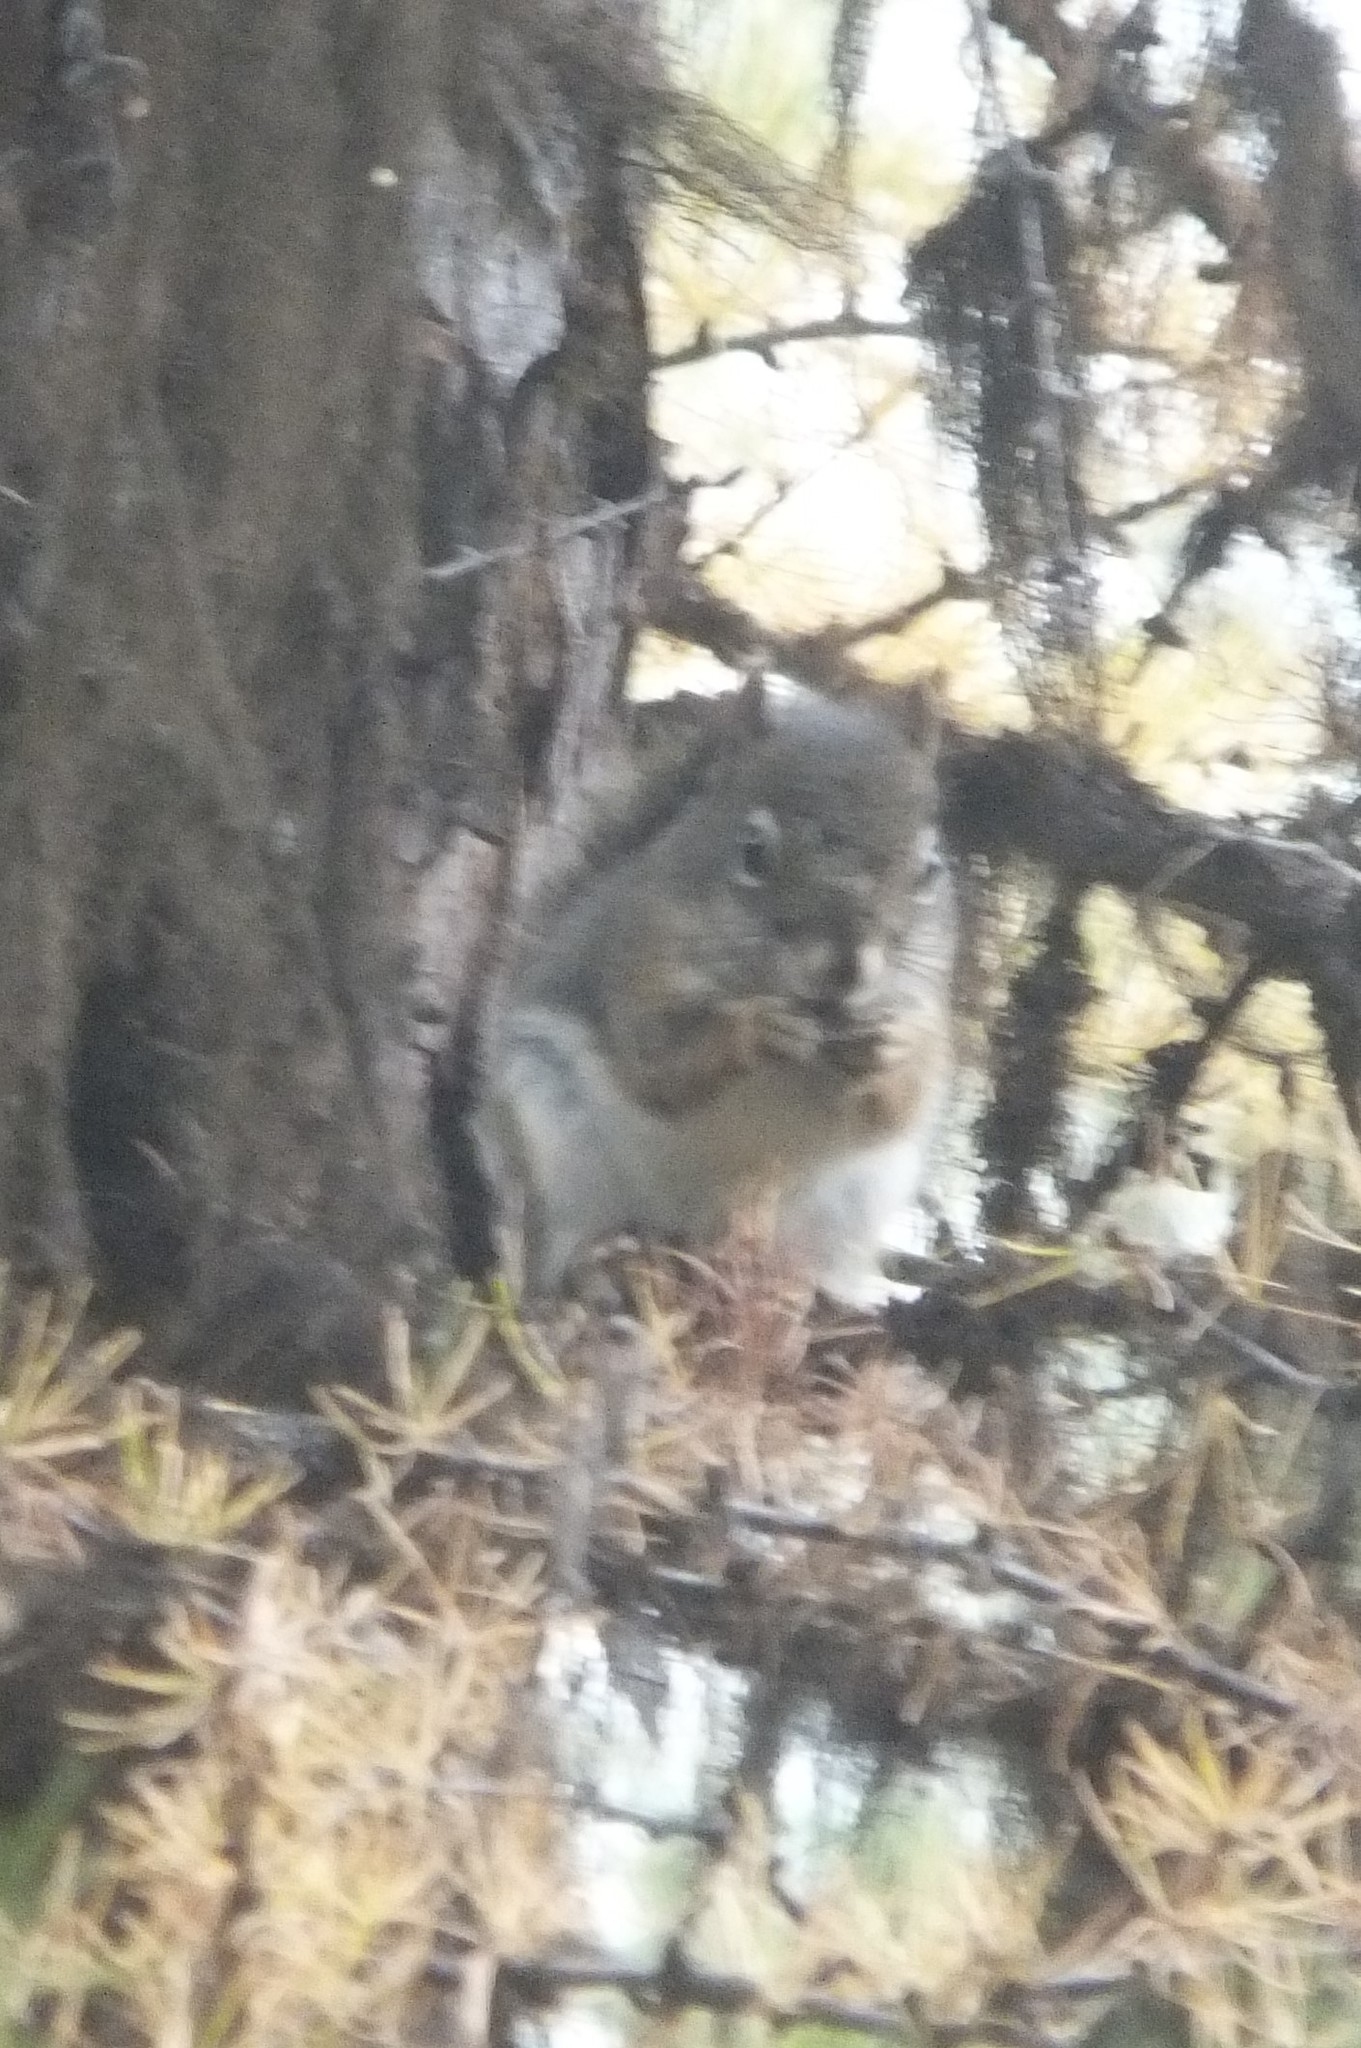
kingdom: Animalia
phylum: Chordata
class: Mammalia
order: Rodentia
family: Sciuridae
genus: Tamiasciurus
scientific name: Tamiasciurus hudsonicus
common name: Red squirrel
